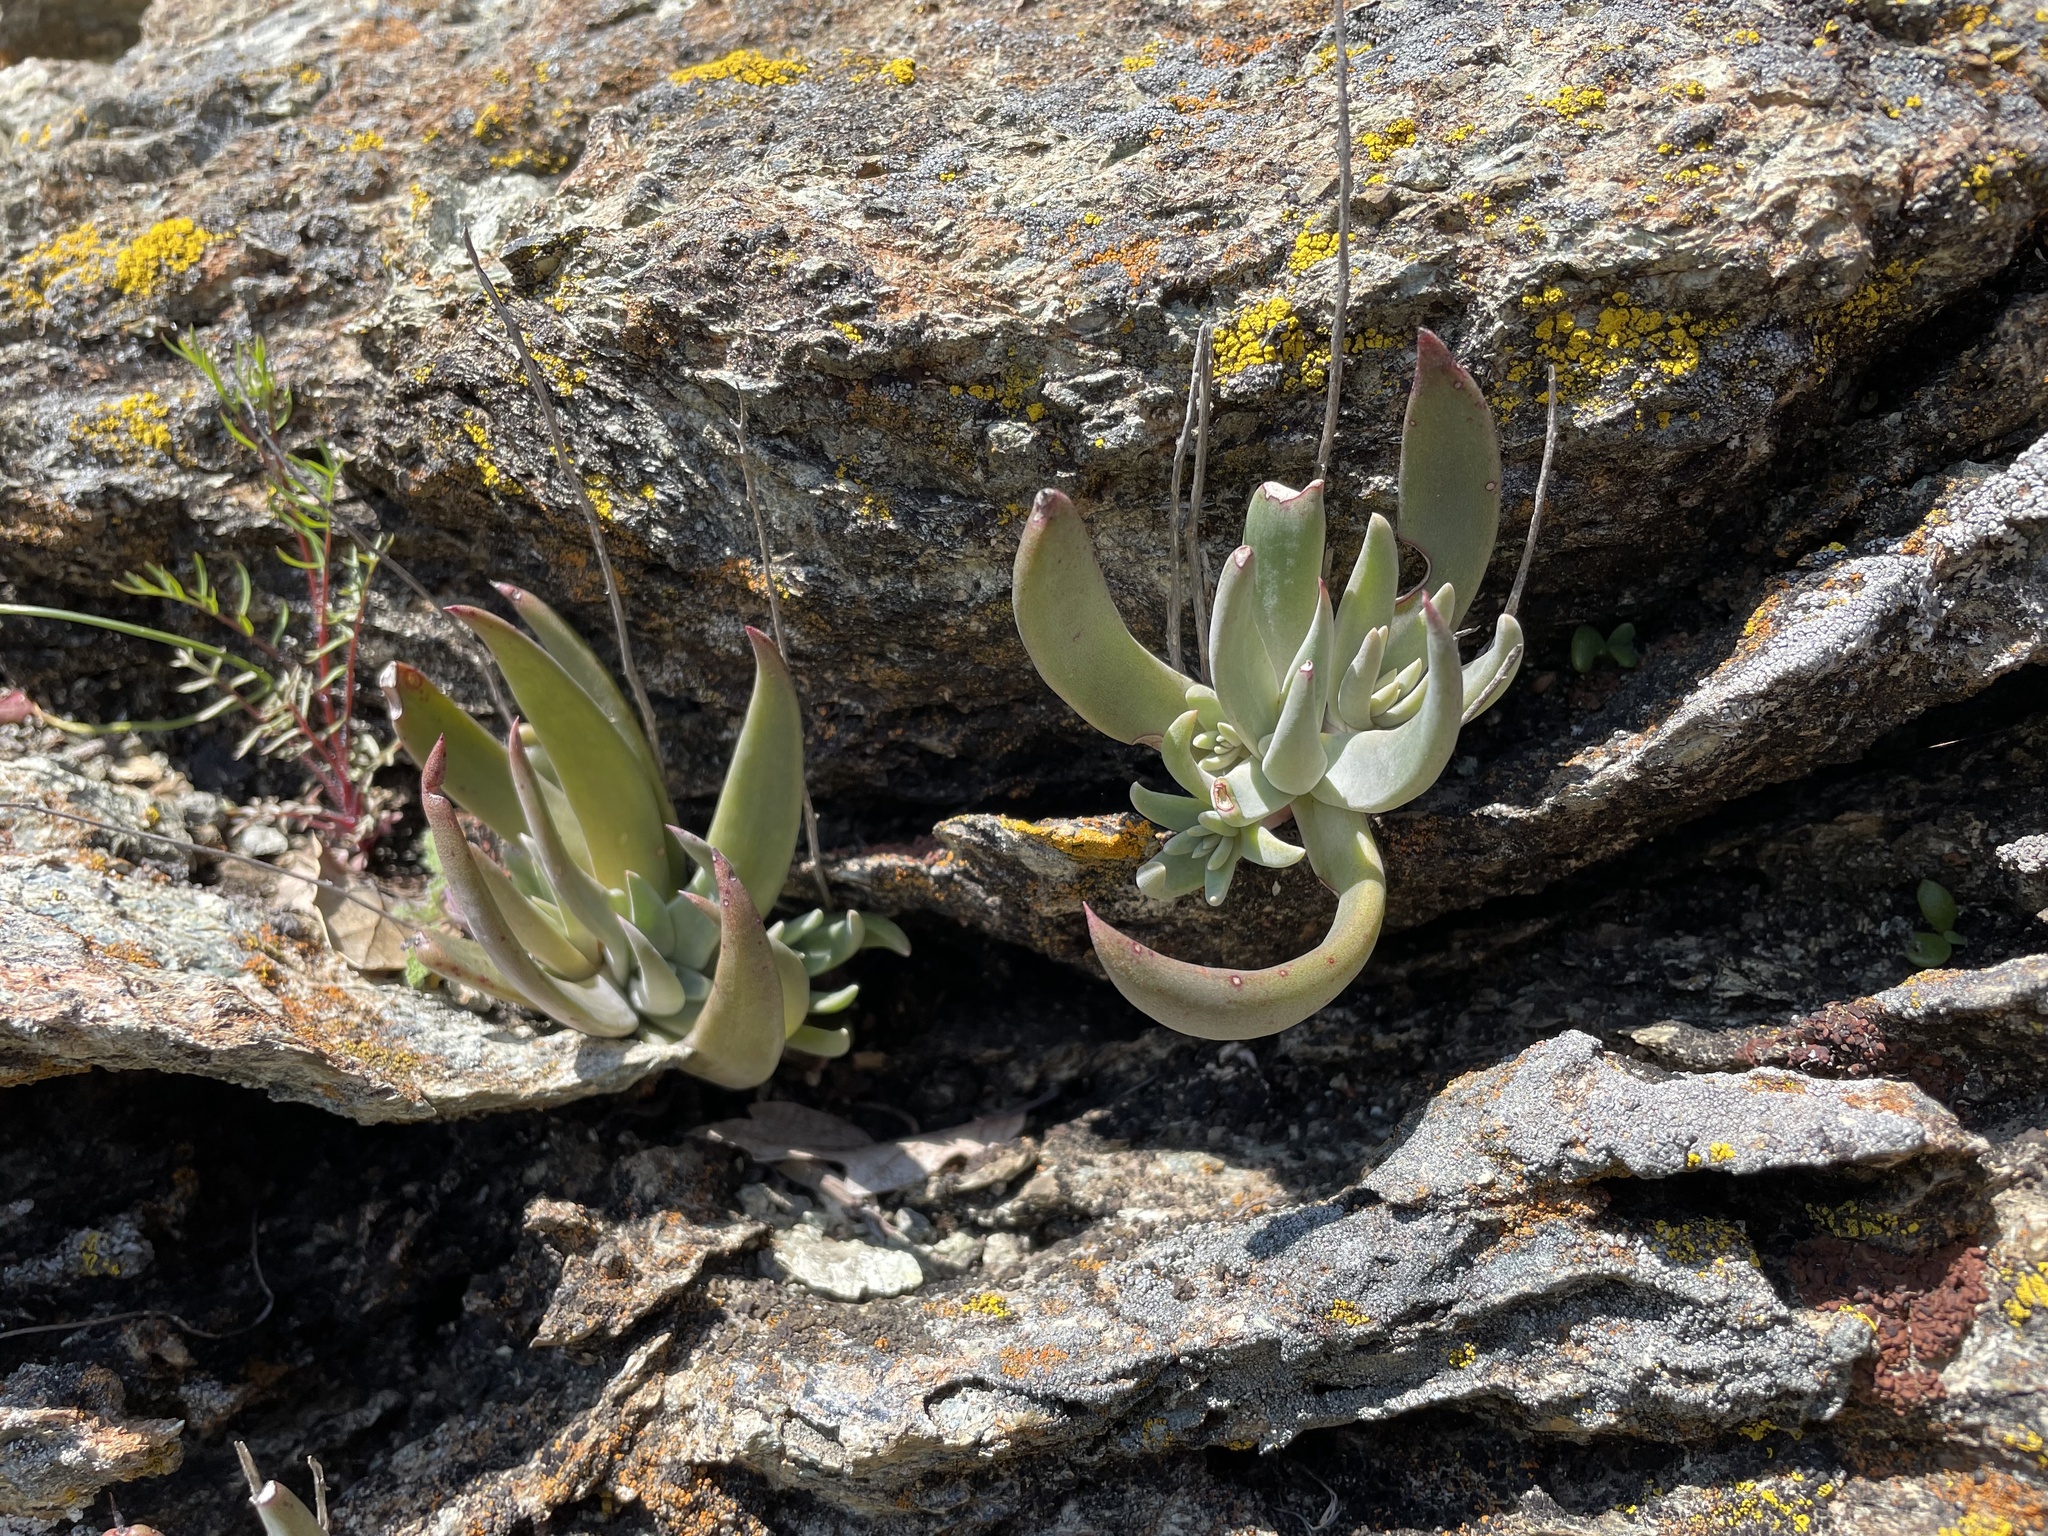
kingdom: Plantae
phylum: Tracheophyta
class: Magnoliopsida
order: Saxifragales
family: Crassulaceae
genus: Dudleya
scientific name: Dudleya abramsii
